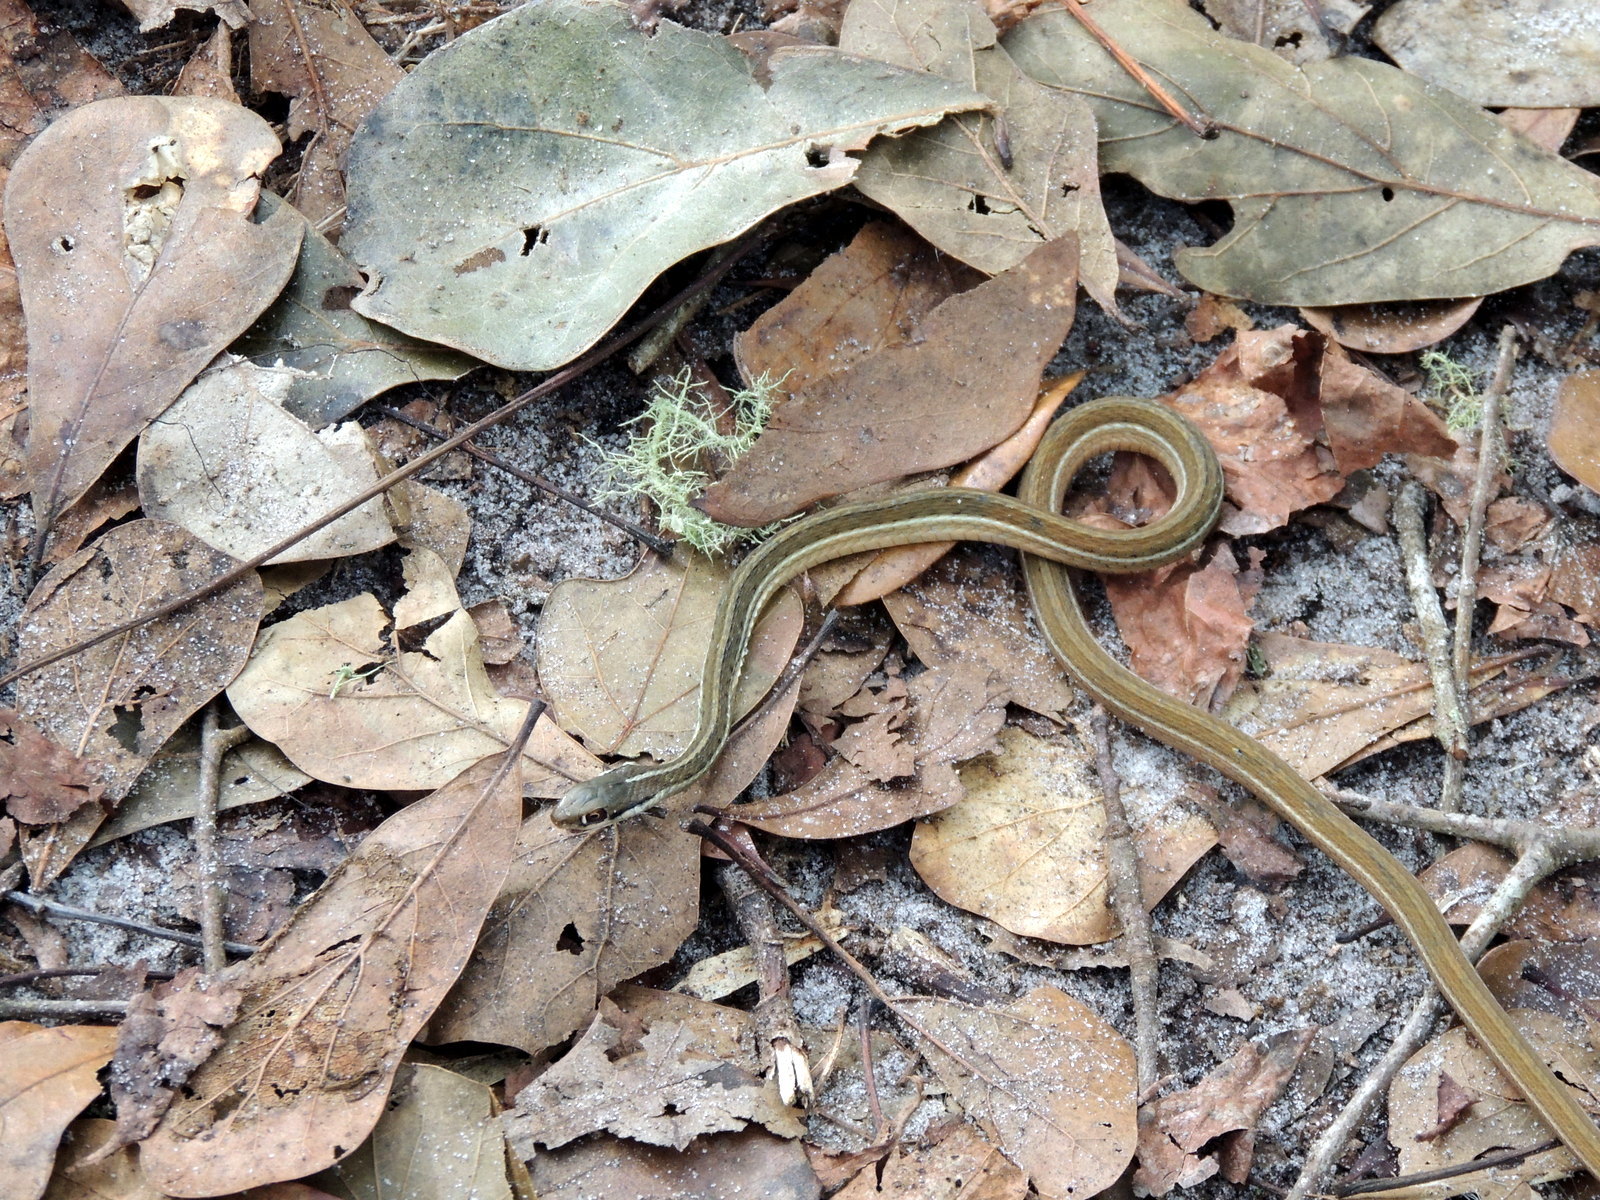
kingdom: Animalia
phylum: Chordata
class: Squamata
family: Colubridae
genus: Thamnophis
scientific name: Thamnophis saurita
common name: Eastern ribbonsnake
